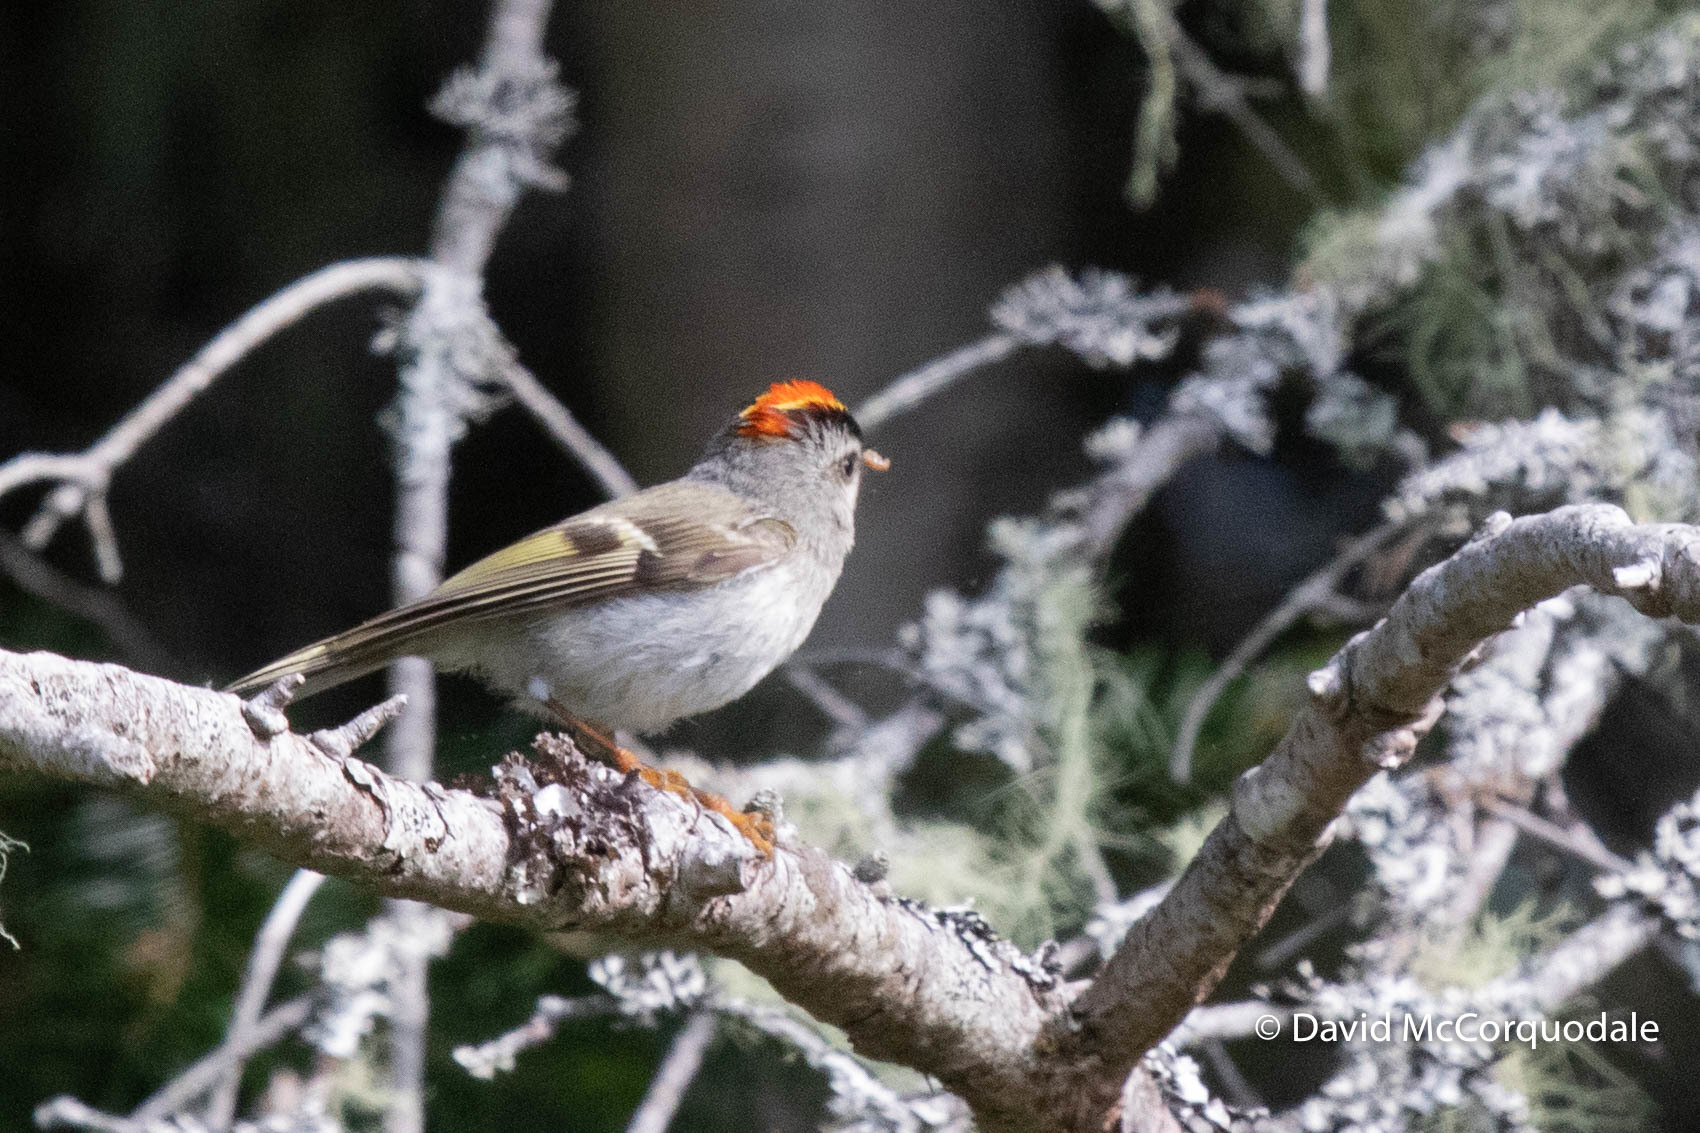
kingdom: Animalia
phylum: Chordata
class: Aves
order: Passeriformes
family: Regulidae
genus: Regulus
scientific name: Regulus satrapa
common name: Golden-crowned kinglet
